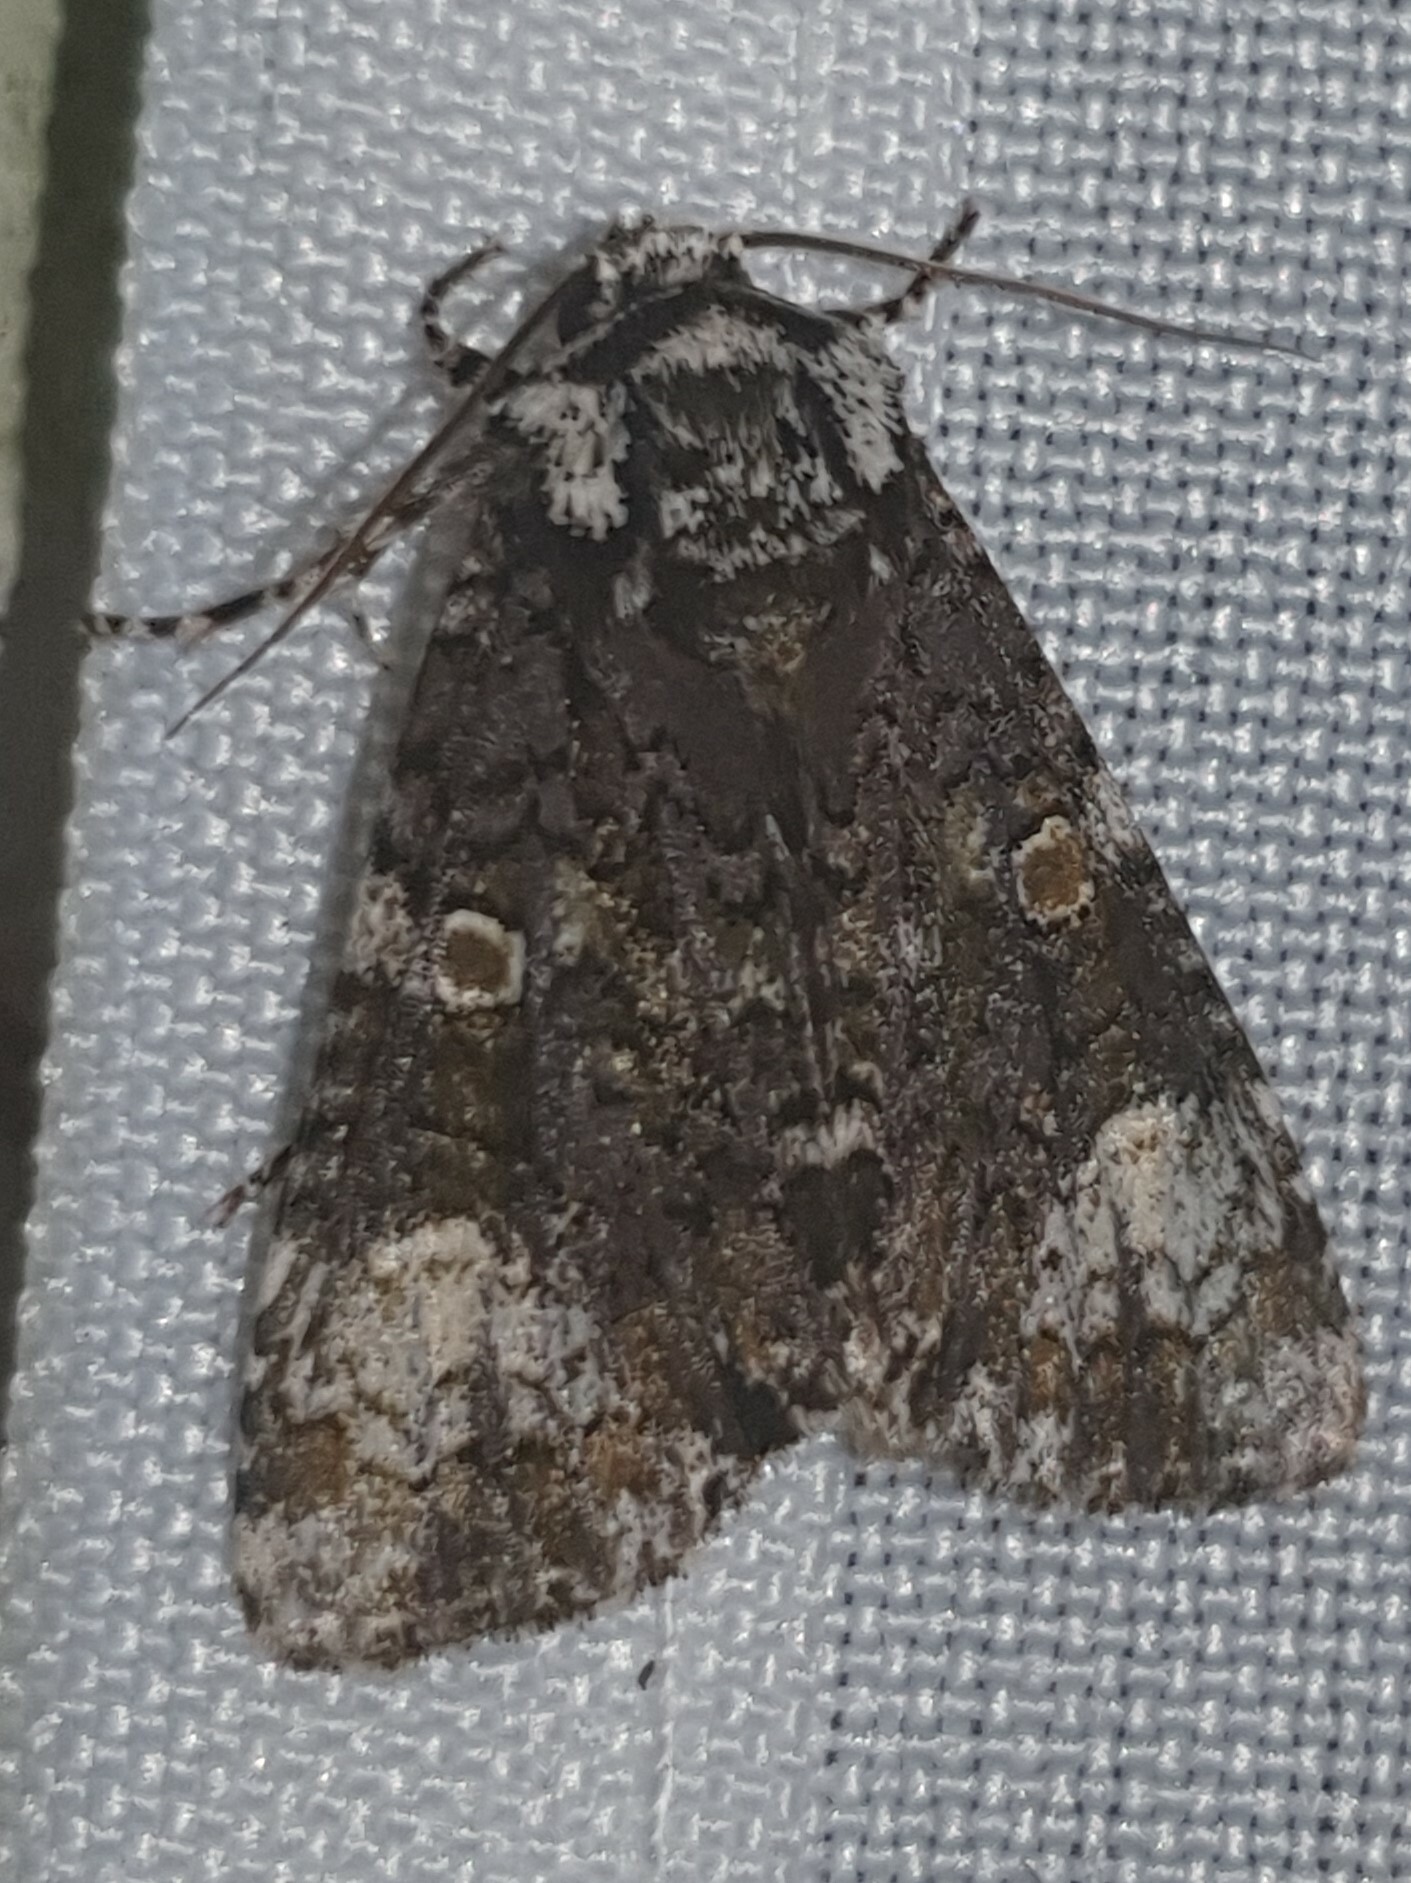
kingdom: Animalia
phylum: Arthropoda
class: Insecta
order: Lepidoptera
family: Noctuidae
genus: Craniophora
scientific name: Craniophora ligustri
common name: Coronet
